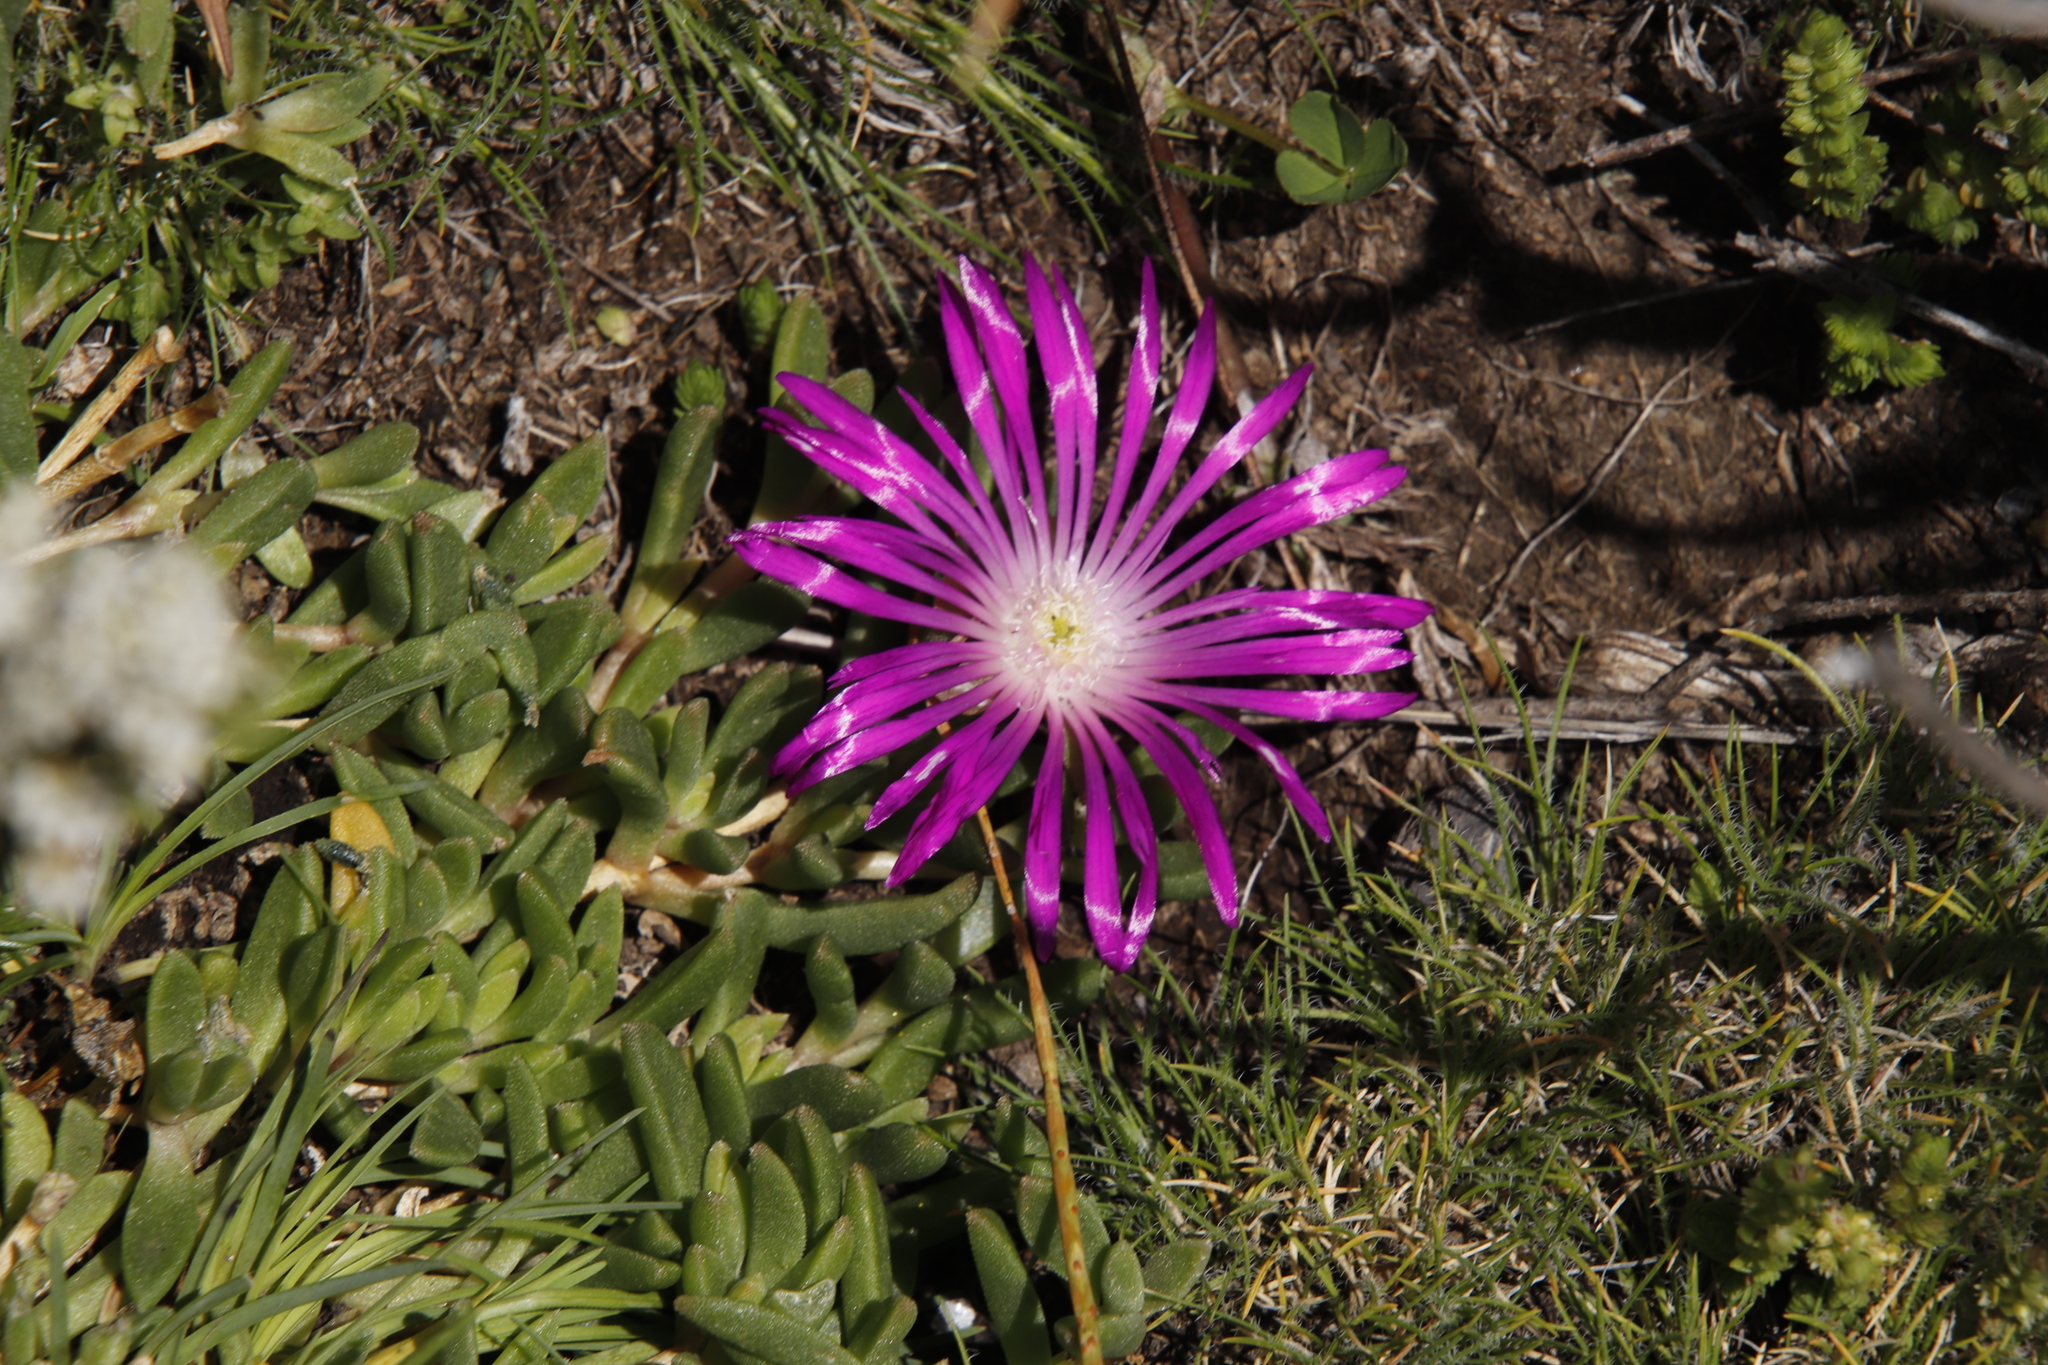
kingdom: Plantae
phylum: Tracheophyta
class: Magnoliopsida
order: Caryophyllales
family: Aizoaceae
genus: Delosperma
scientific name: Delosperma dyeri
